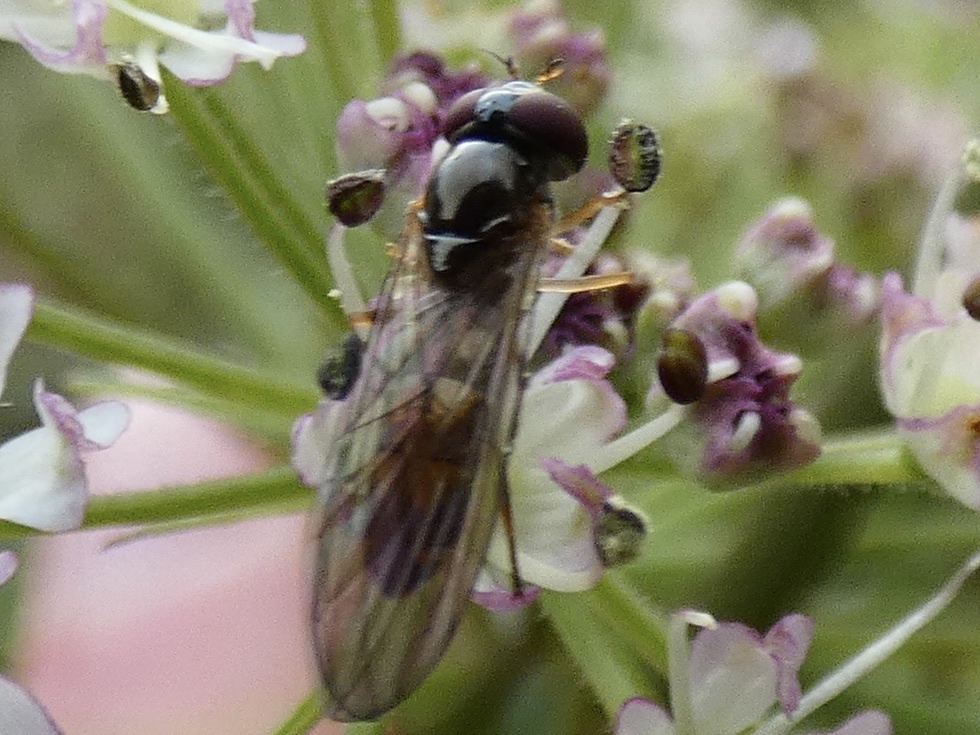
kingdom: Animalia
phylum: Arthropoda
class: Insecta
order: Diptera
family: Syrphidae
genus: Melanostoma
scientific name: Melanostoma
